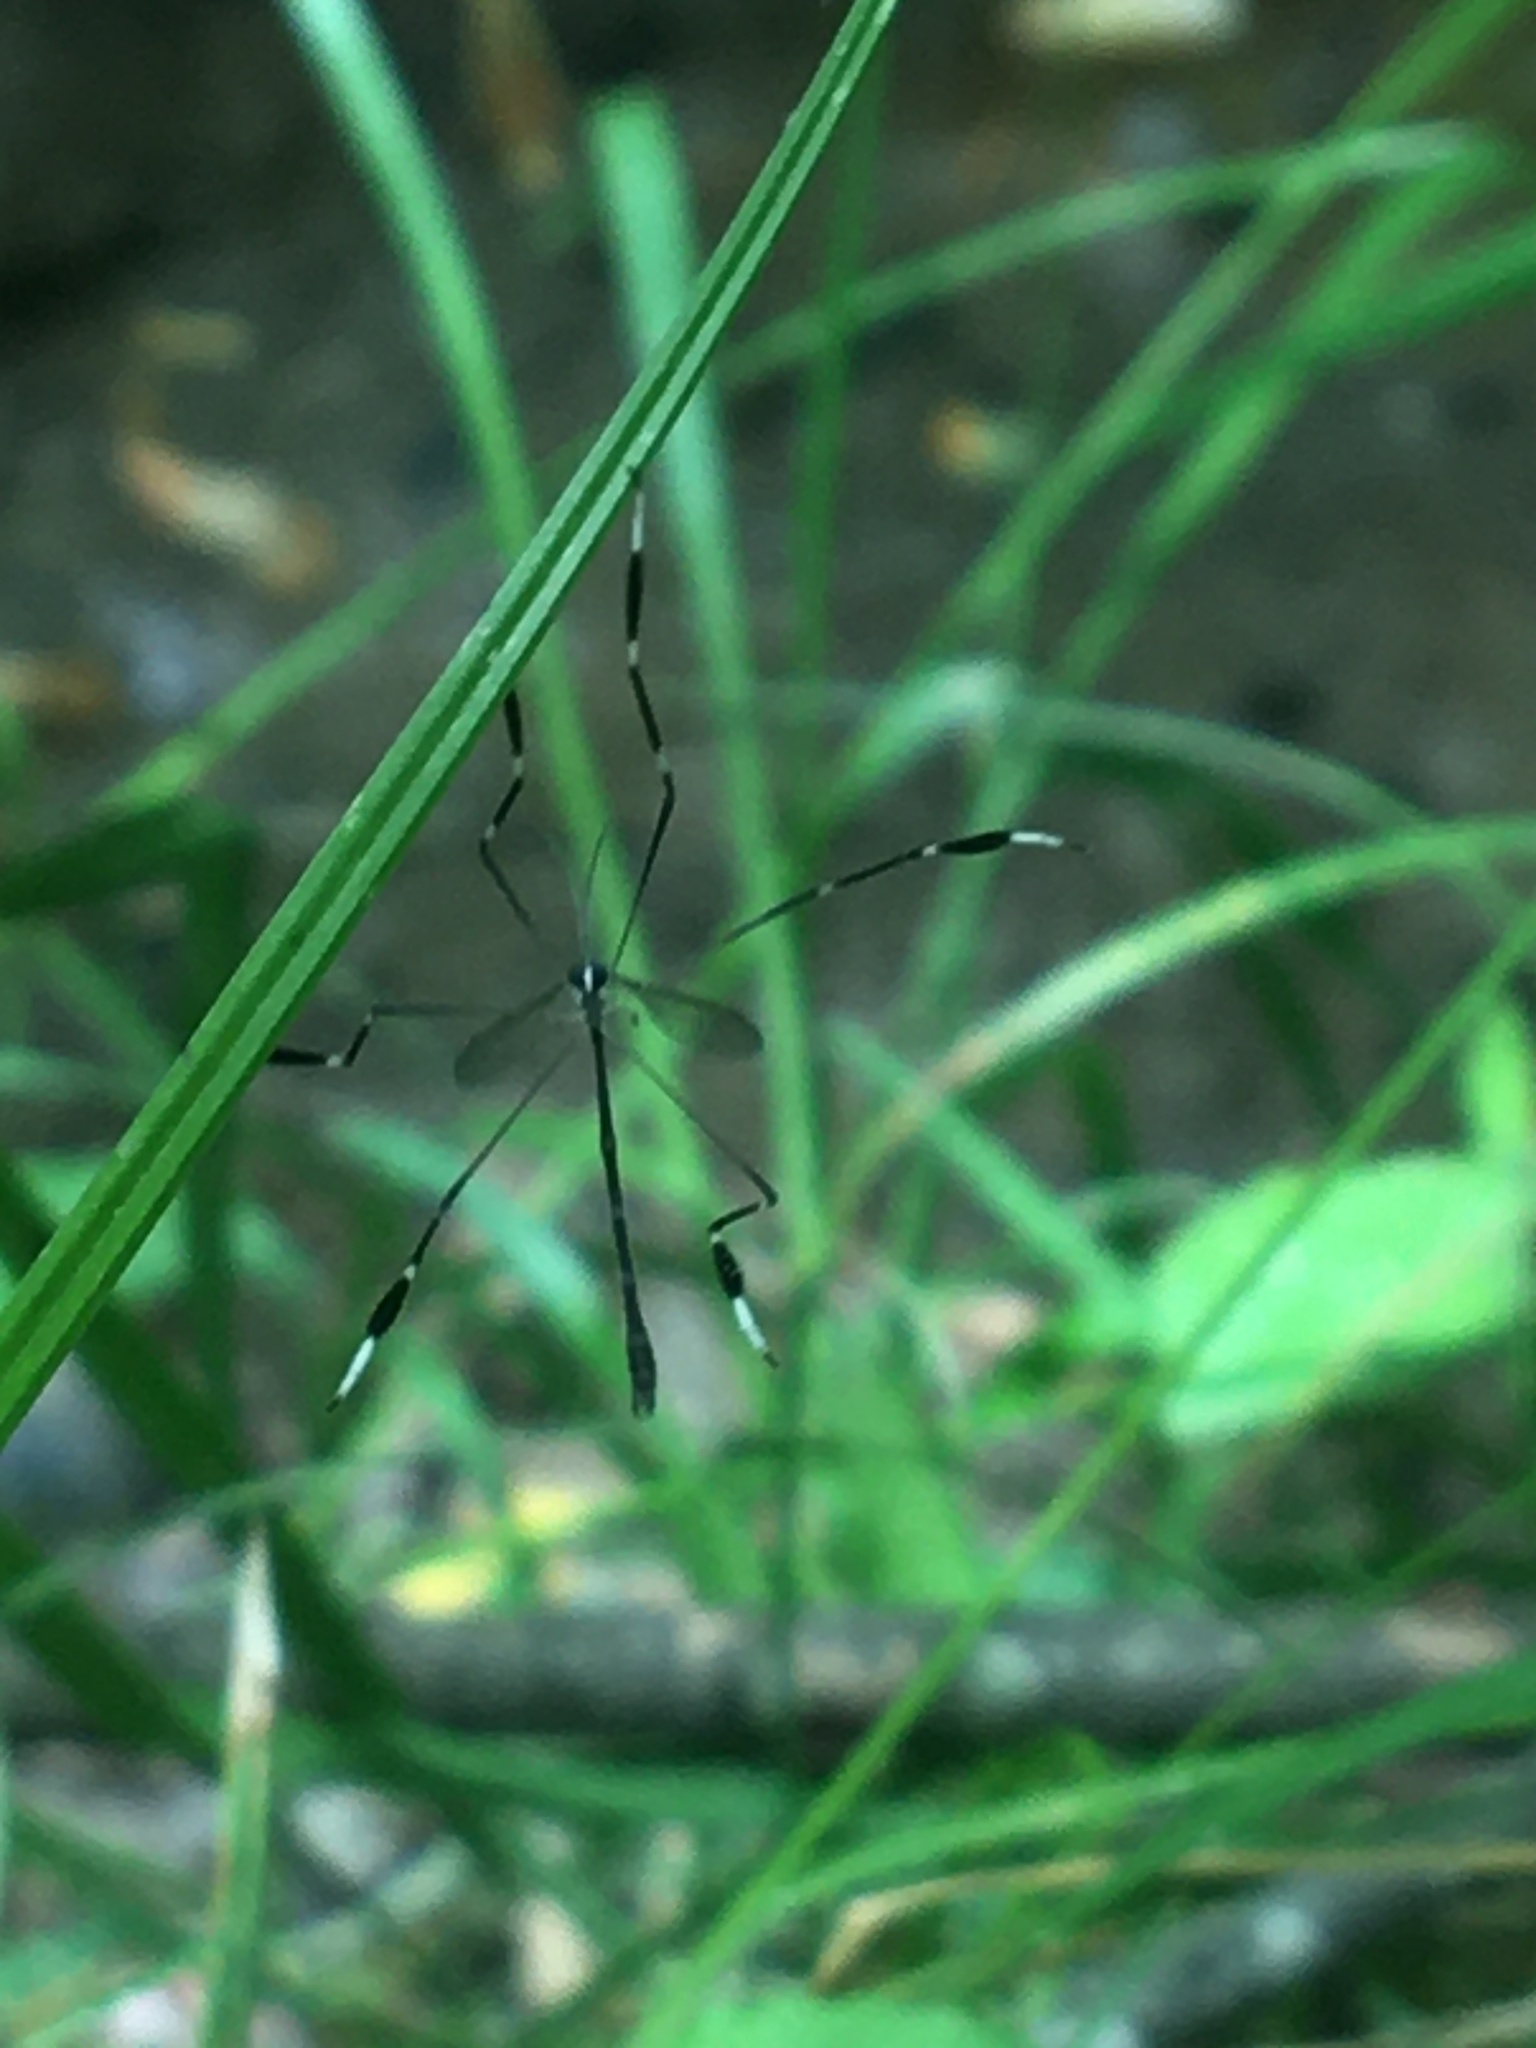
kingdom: Animalia
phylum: Arthropoda
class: Insecta
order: Diptera
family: Ptychopteridae
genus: Bittacomorpha
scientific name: Bittacomorpha clavipes
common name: Eastern phantom crane fly
